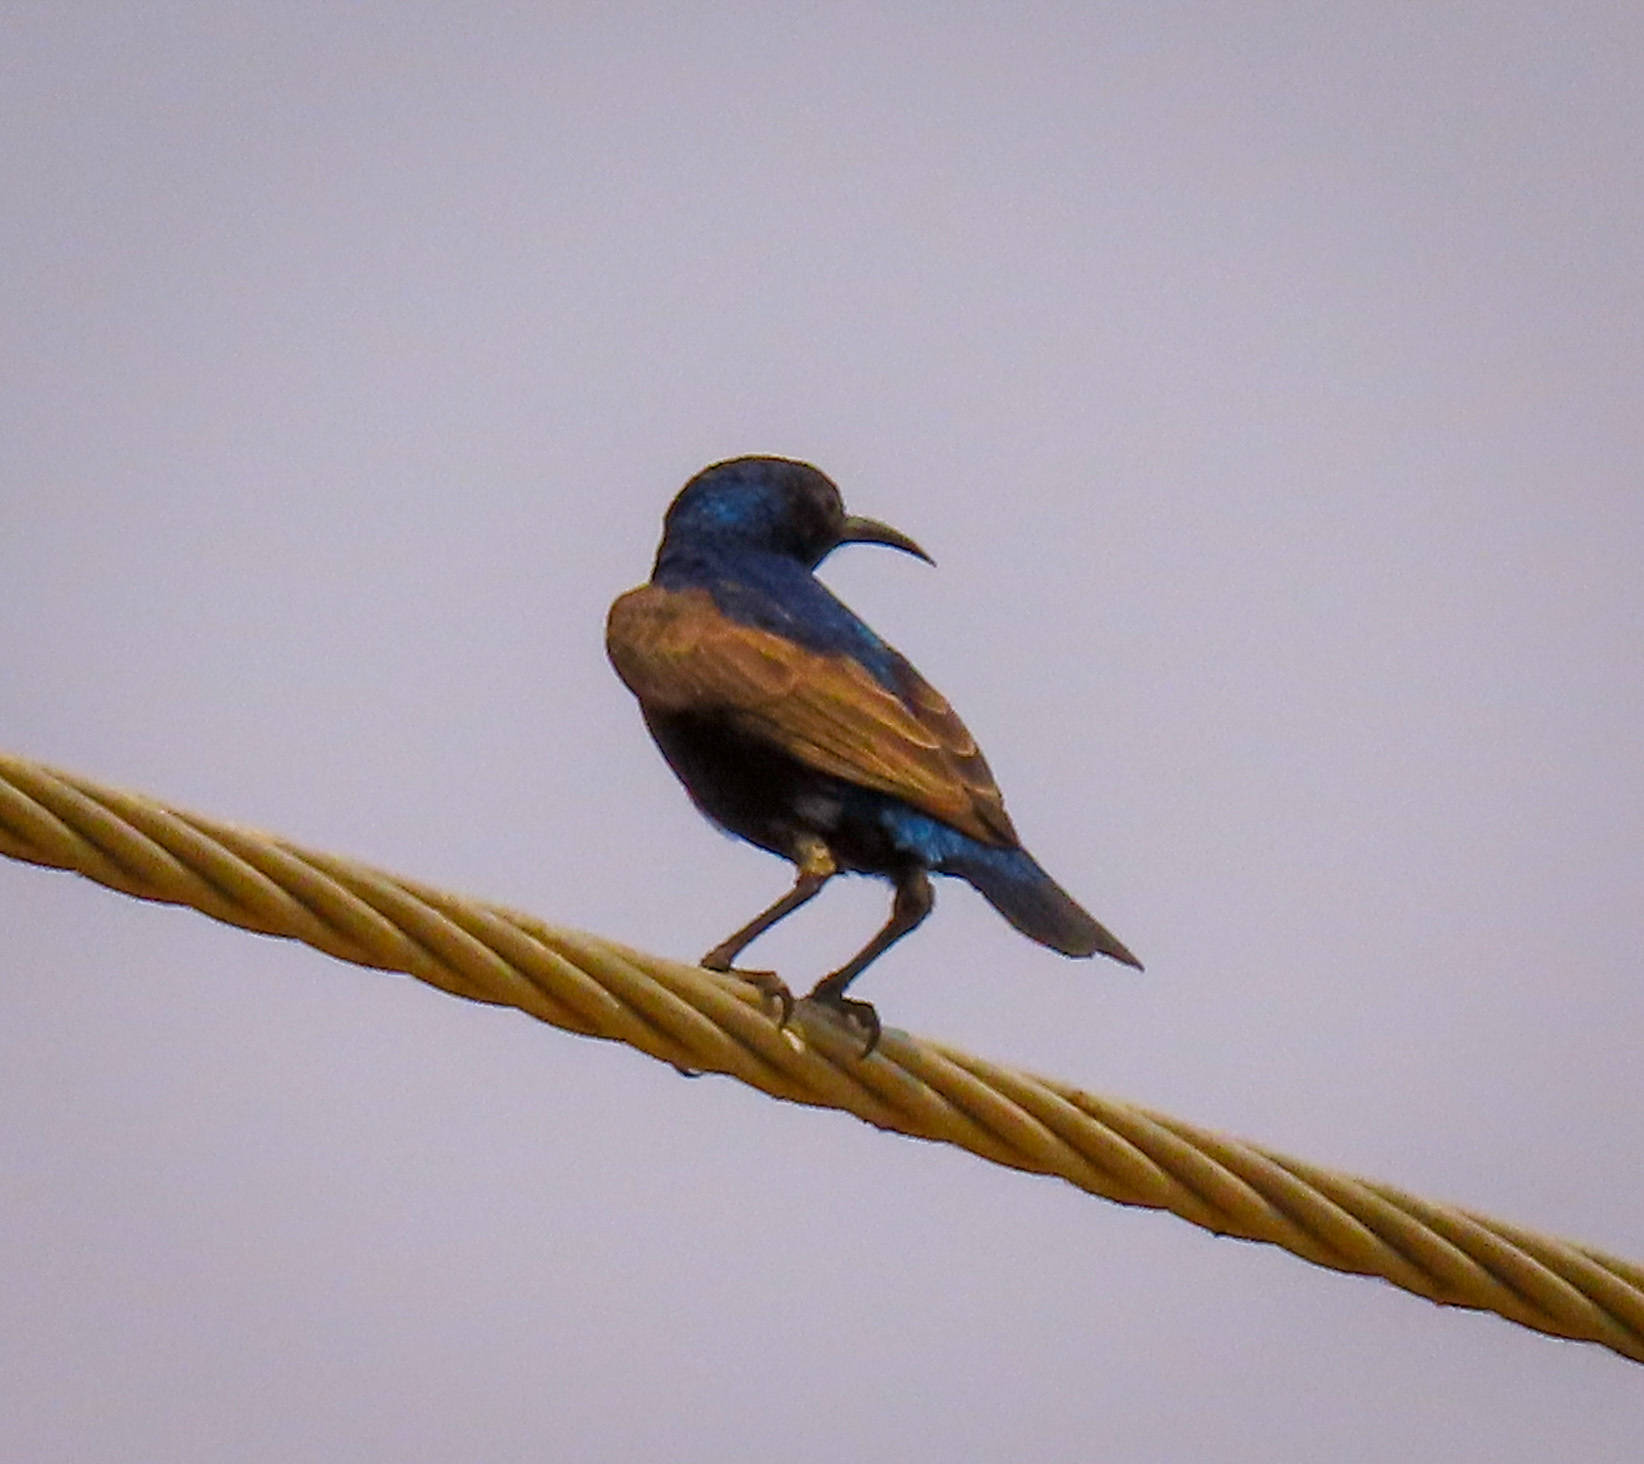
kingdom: Animalia
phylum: Chordata
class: Aves
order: Passeriformes
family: Nectariniidae
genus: Cinnyris
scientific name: Cinnyris asiaticus
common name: Purple sunbird
